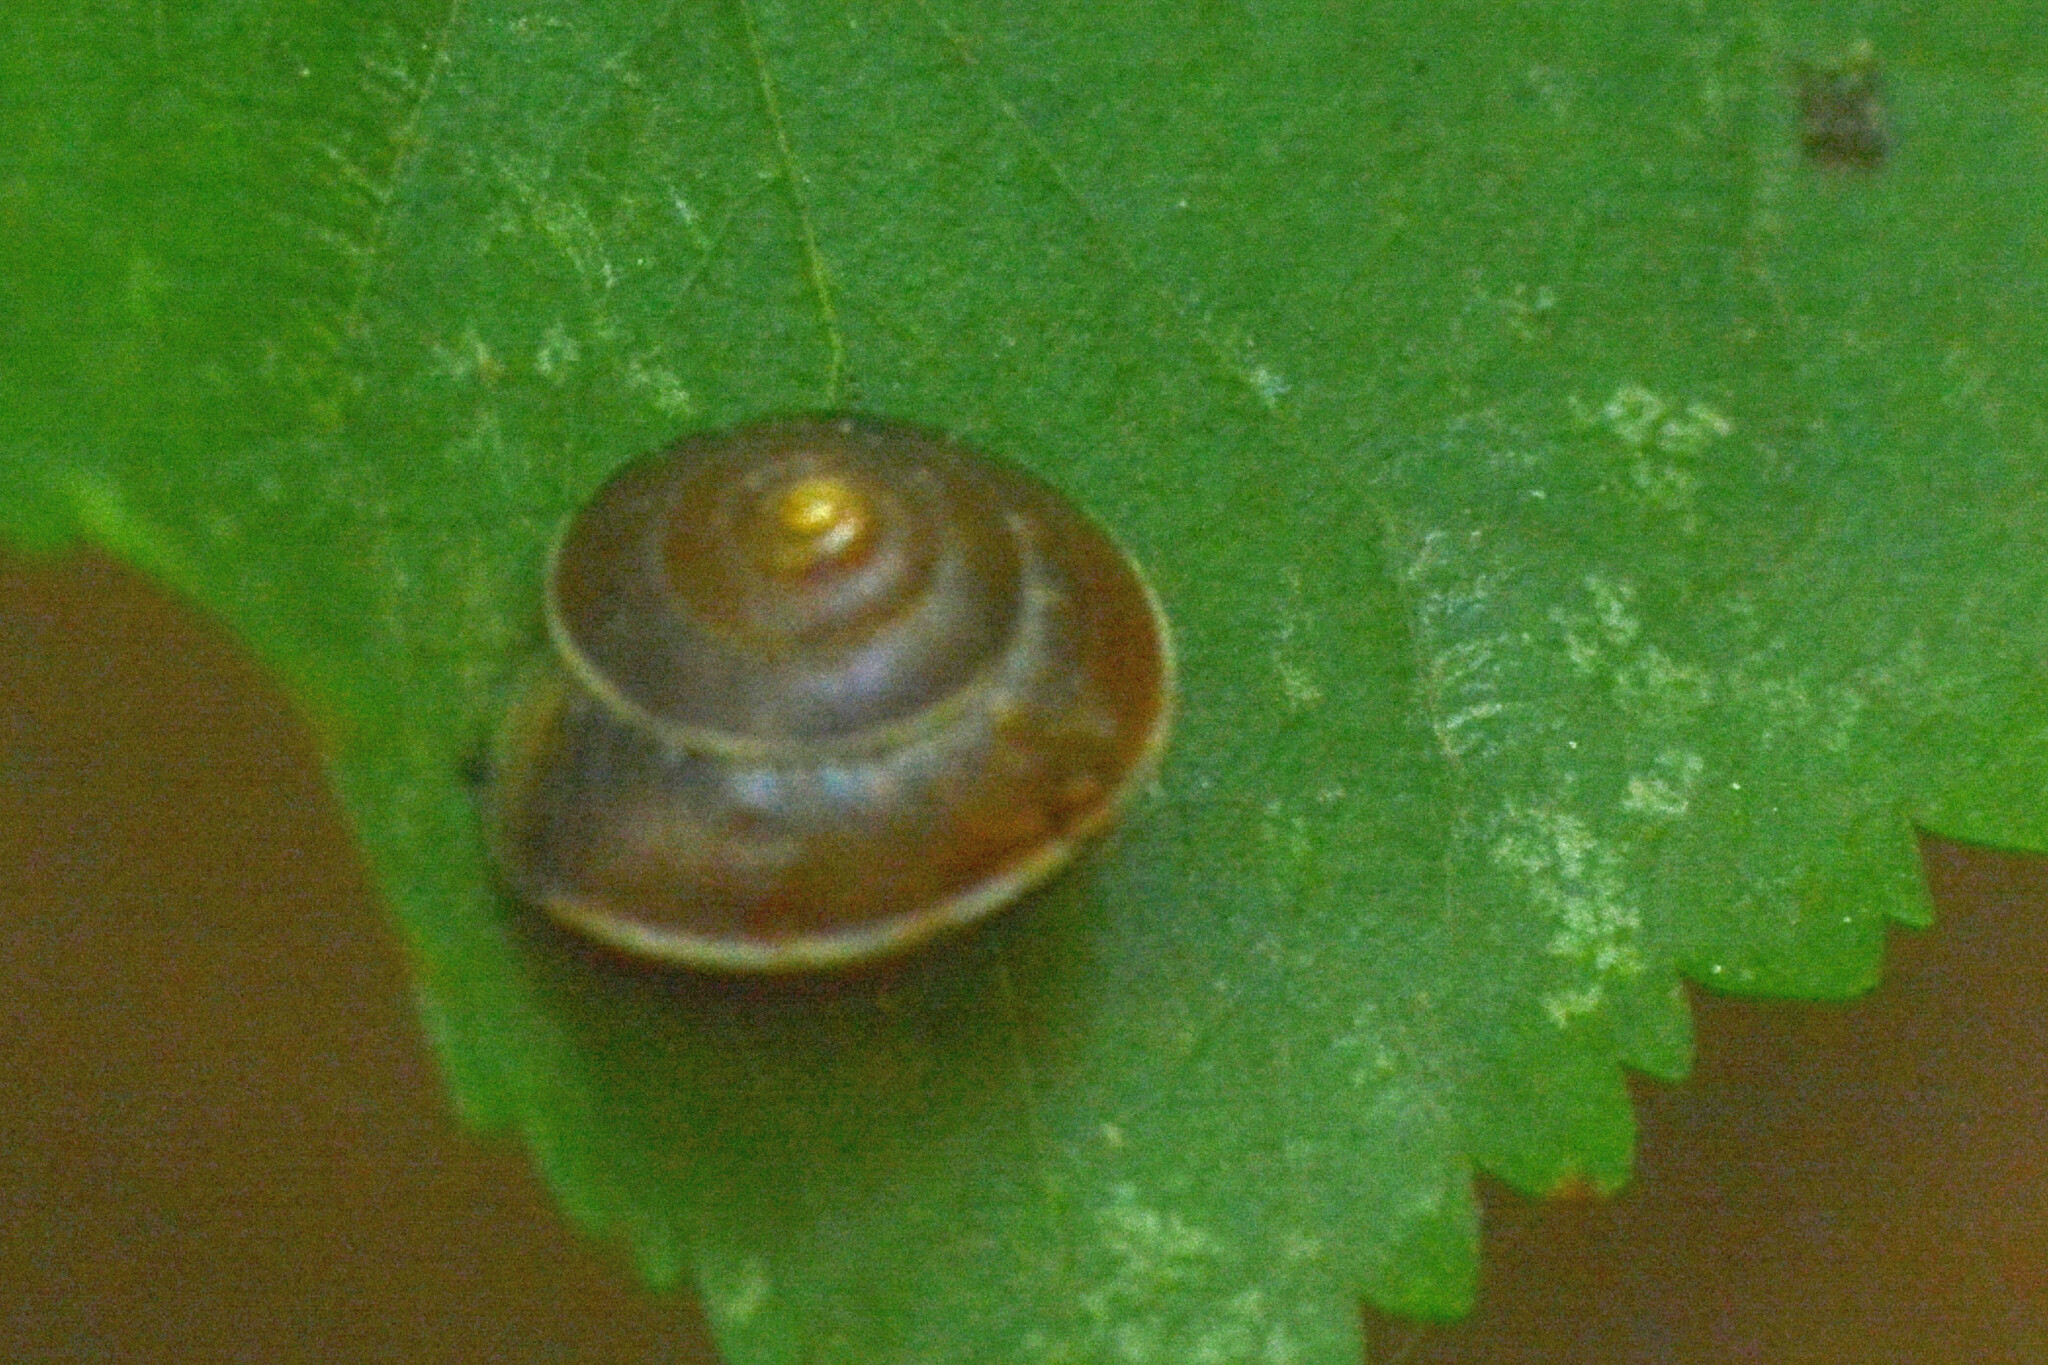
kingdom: Animalia
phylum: Mollusca
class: Gastropoda
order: Stylommatophora
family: Hygromiidae
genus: Hygromia
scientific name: Hygromia cinctella
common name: Girdled snail
